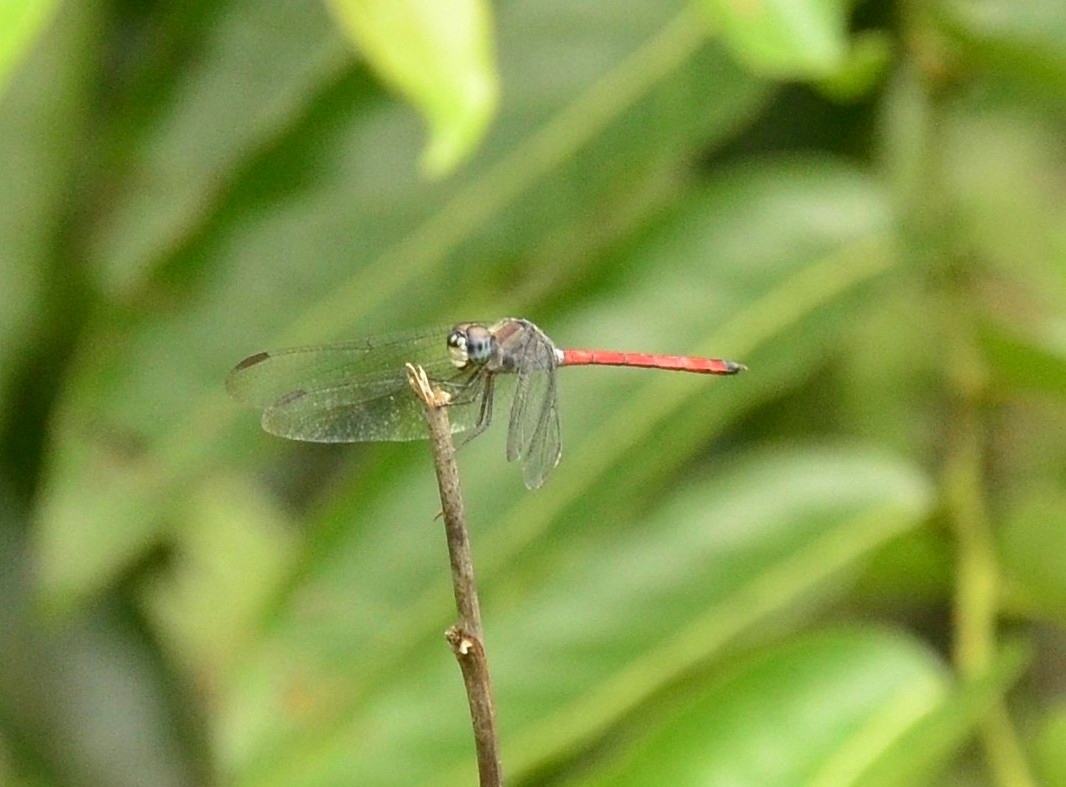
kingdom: Animalia
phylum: Arthropoda
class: Insecta
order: Odonata
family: Libellulidae
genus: Lathrecista
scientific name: Lathrecista asiatica
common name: Scarlet grenadier
